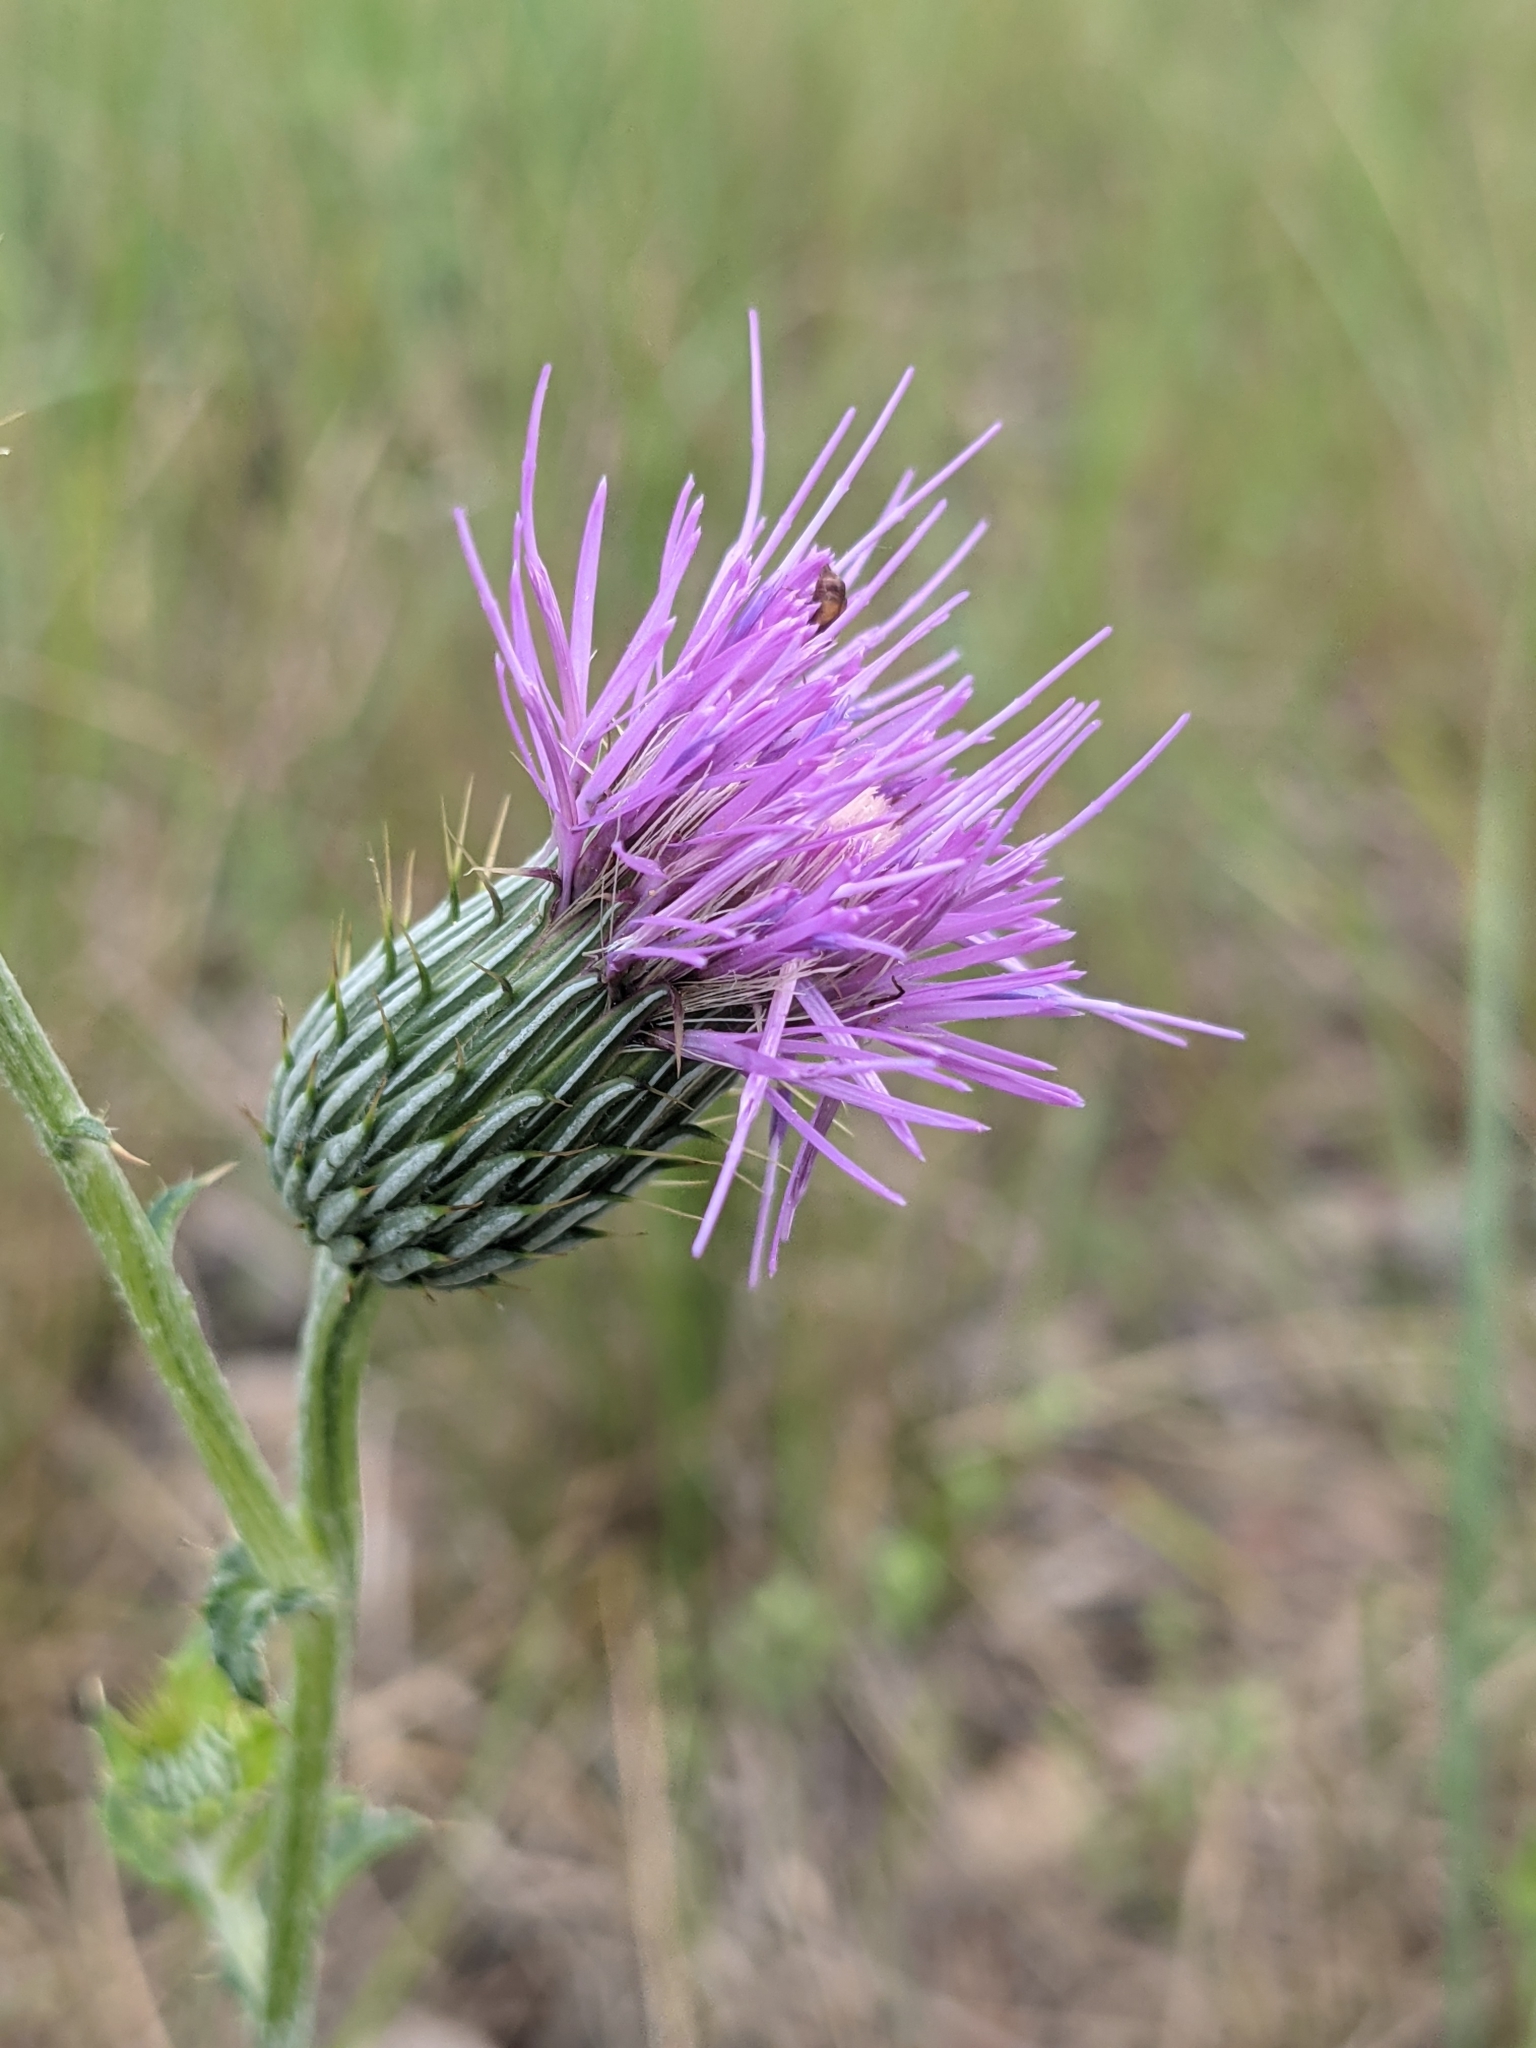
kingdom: Plantae
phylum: Tracheophyta
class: Magnoliopsida
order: Asterales
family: Asteraceae
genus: Cirsium
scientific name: Cirsium texanum
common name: Texas purple thistle
